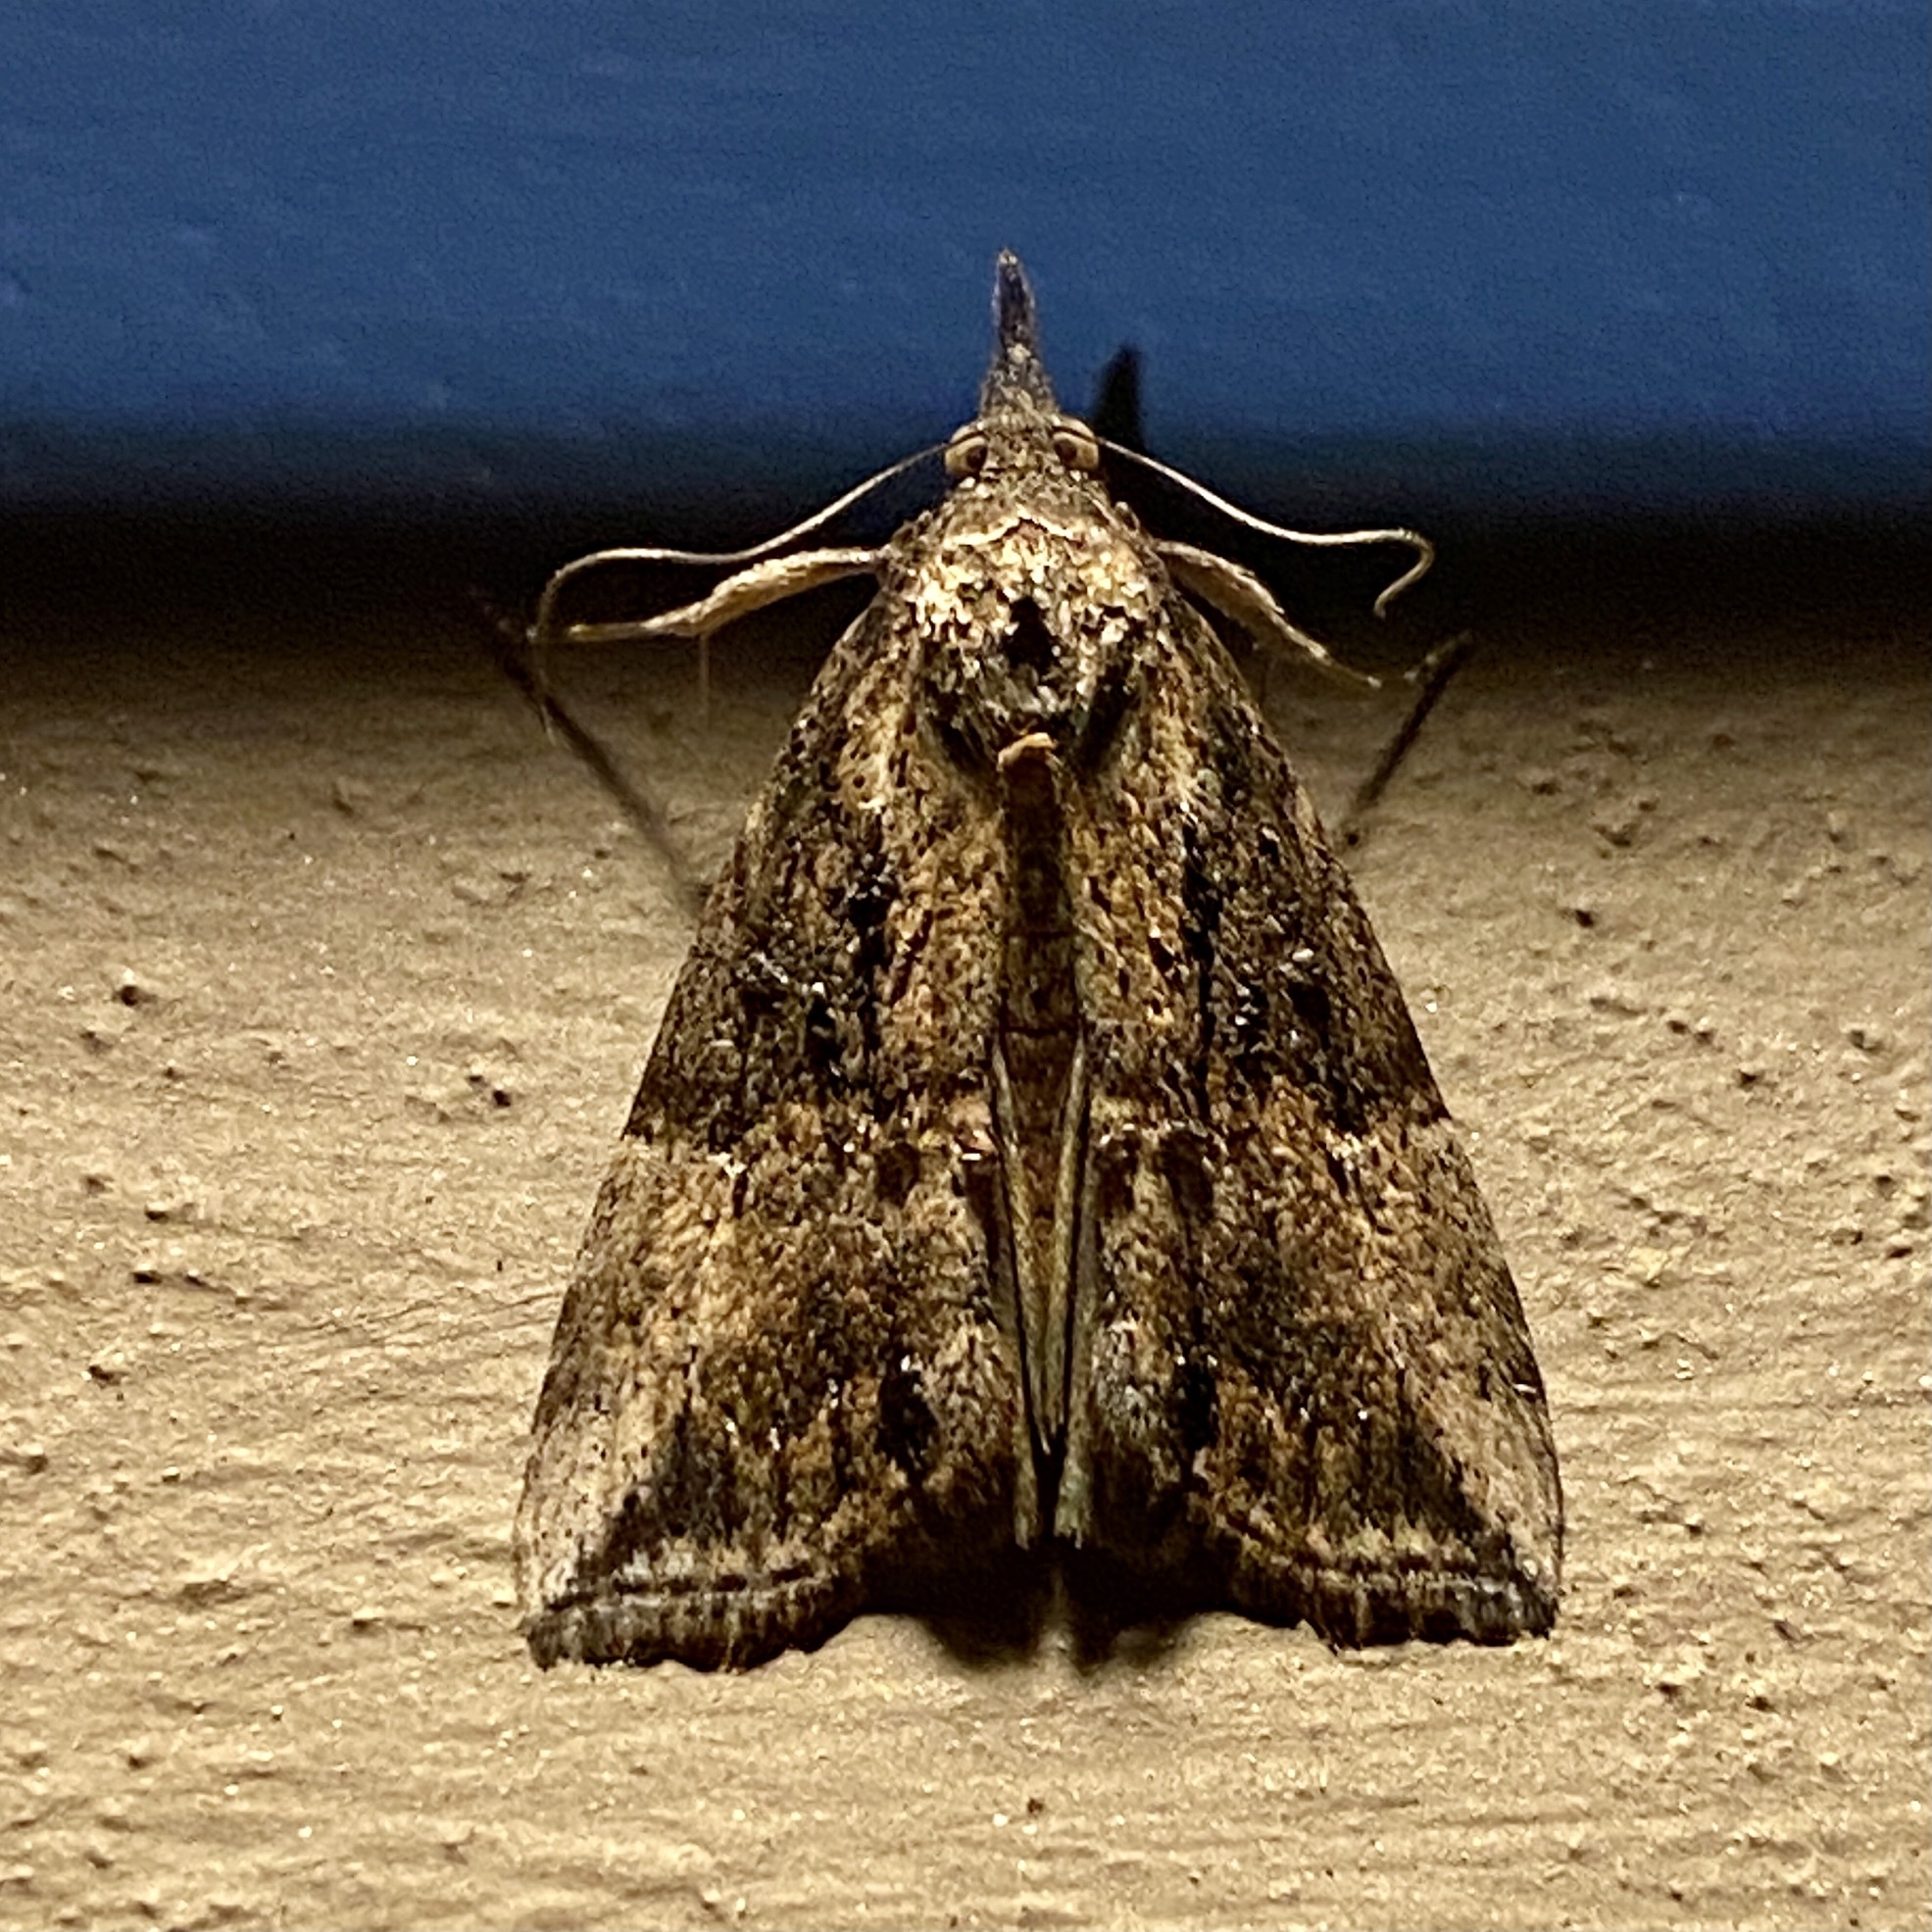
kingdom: Animalia
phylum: Arthropoda
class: Insecta
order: Lepidoptera
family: Erebidae
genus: Hypena
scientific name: Hypena scabra
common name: Green cloverworm
